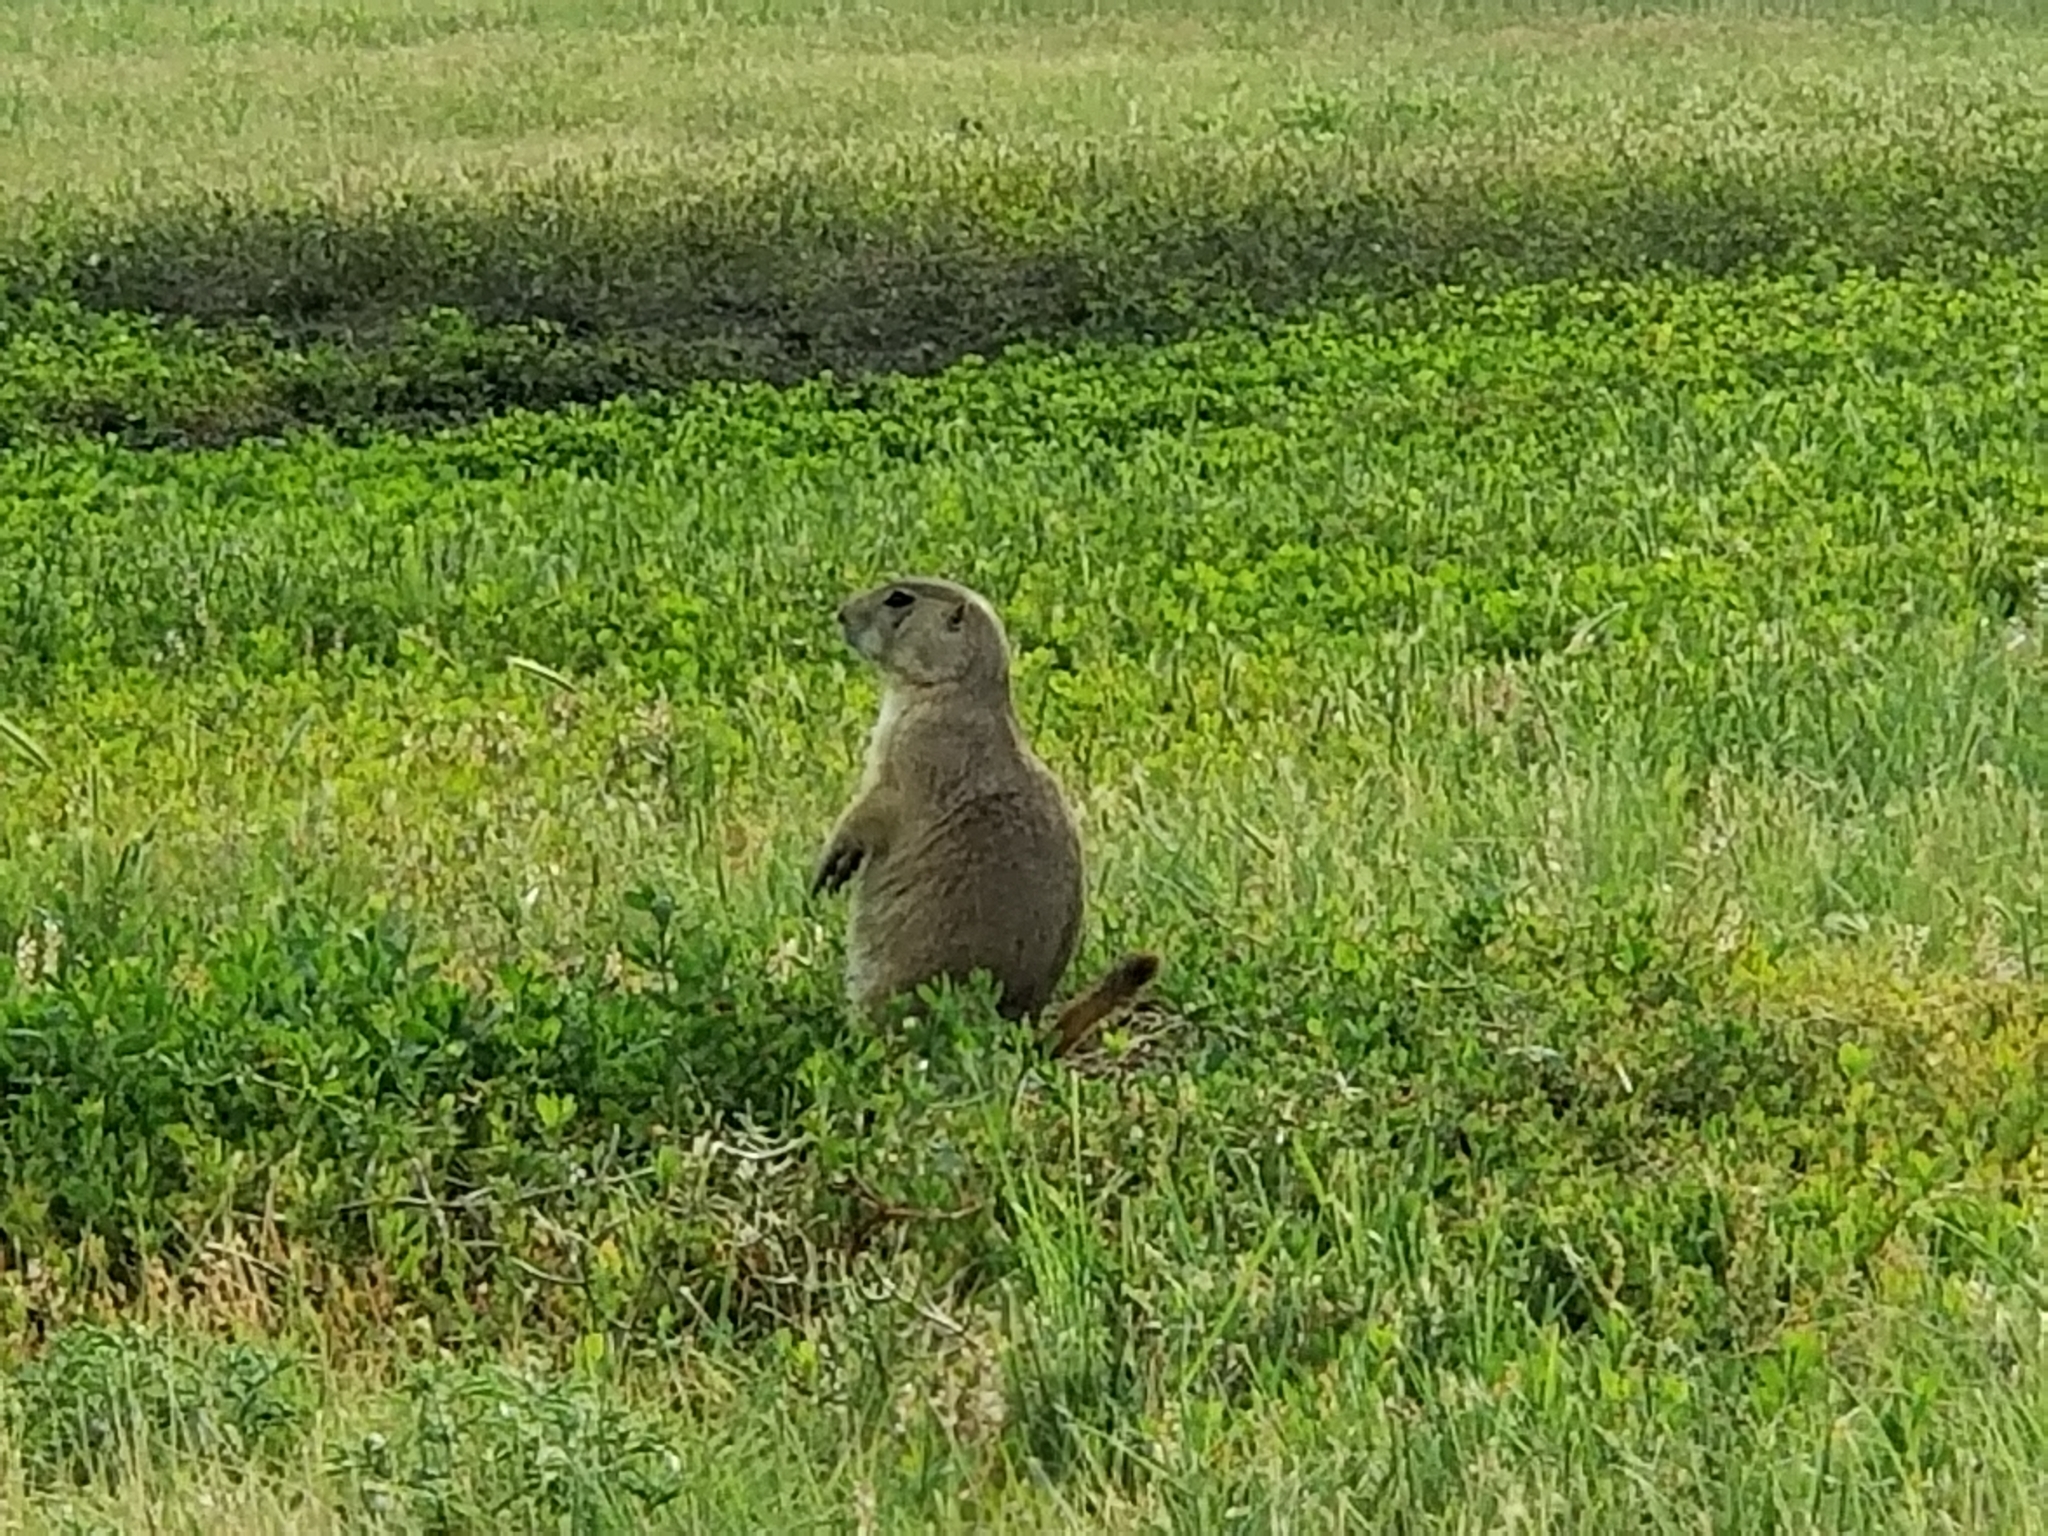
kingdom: Animalia
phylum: Chordata
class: Mammalia
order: Rodentia
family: Sciuridae
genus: Cynomys
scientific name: Cynomys ludovicianus
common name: Black-tailed prairie dog
